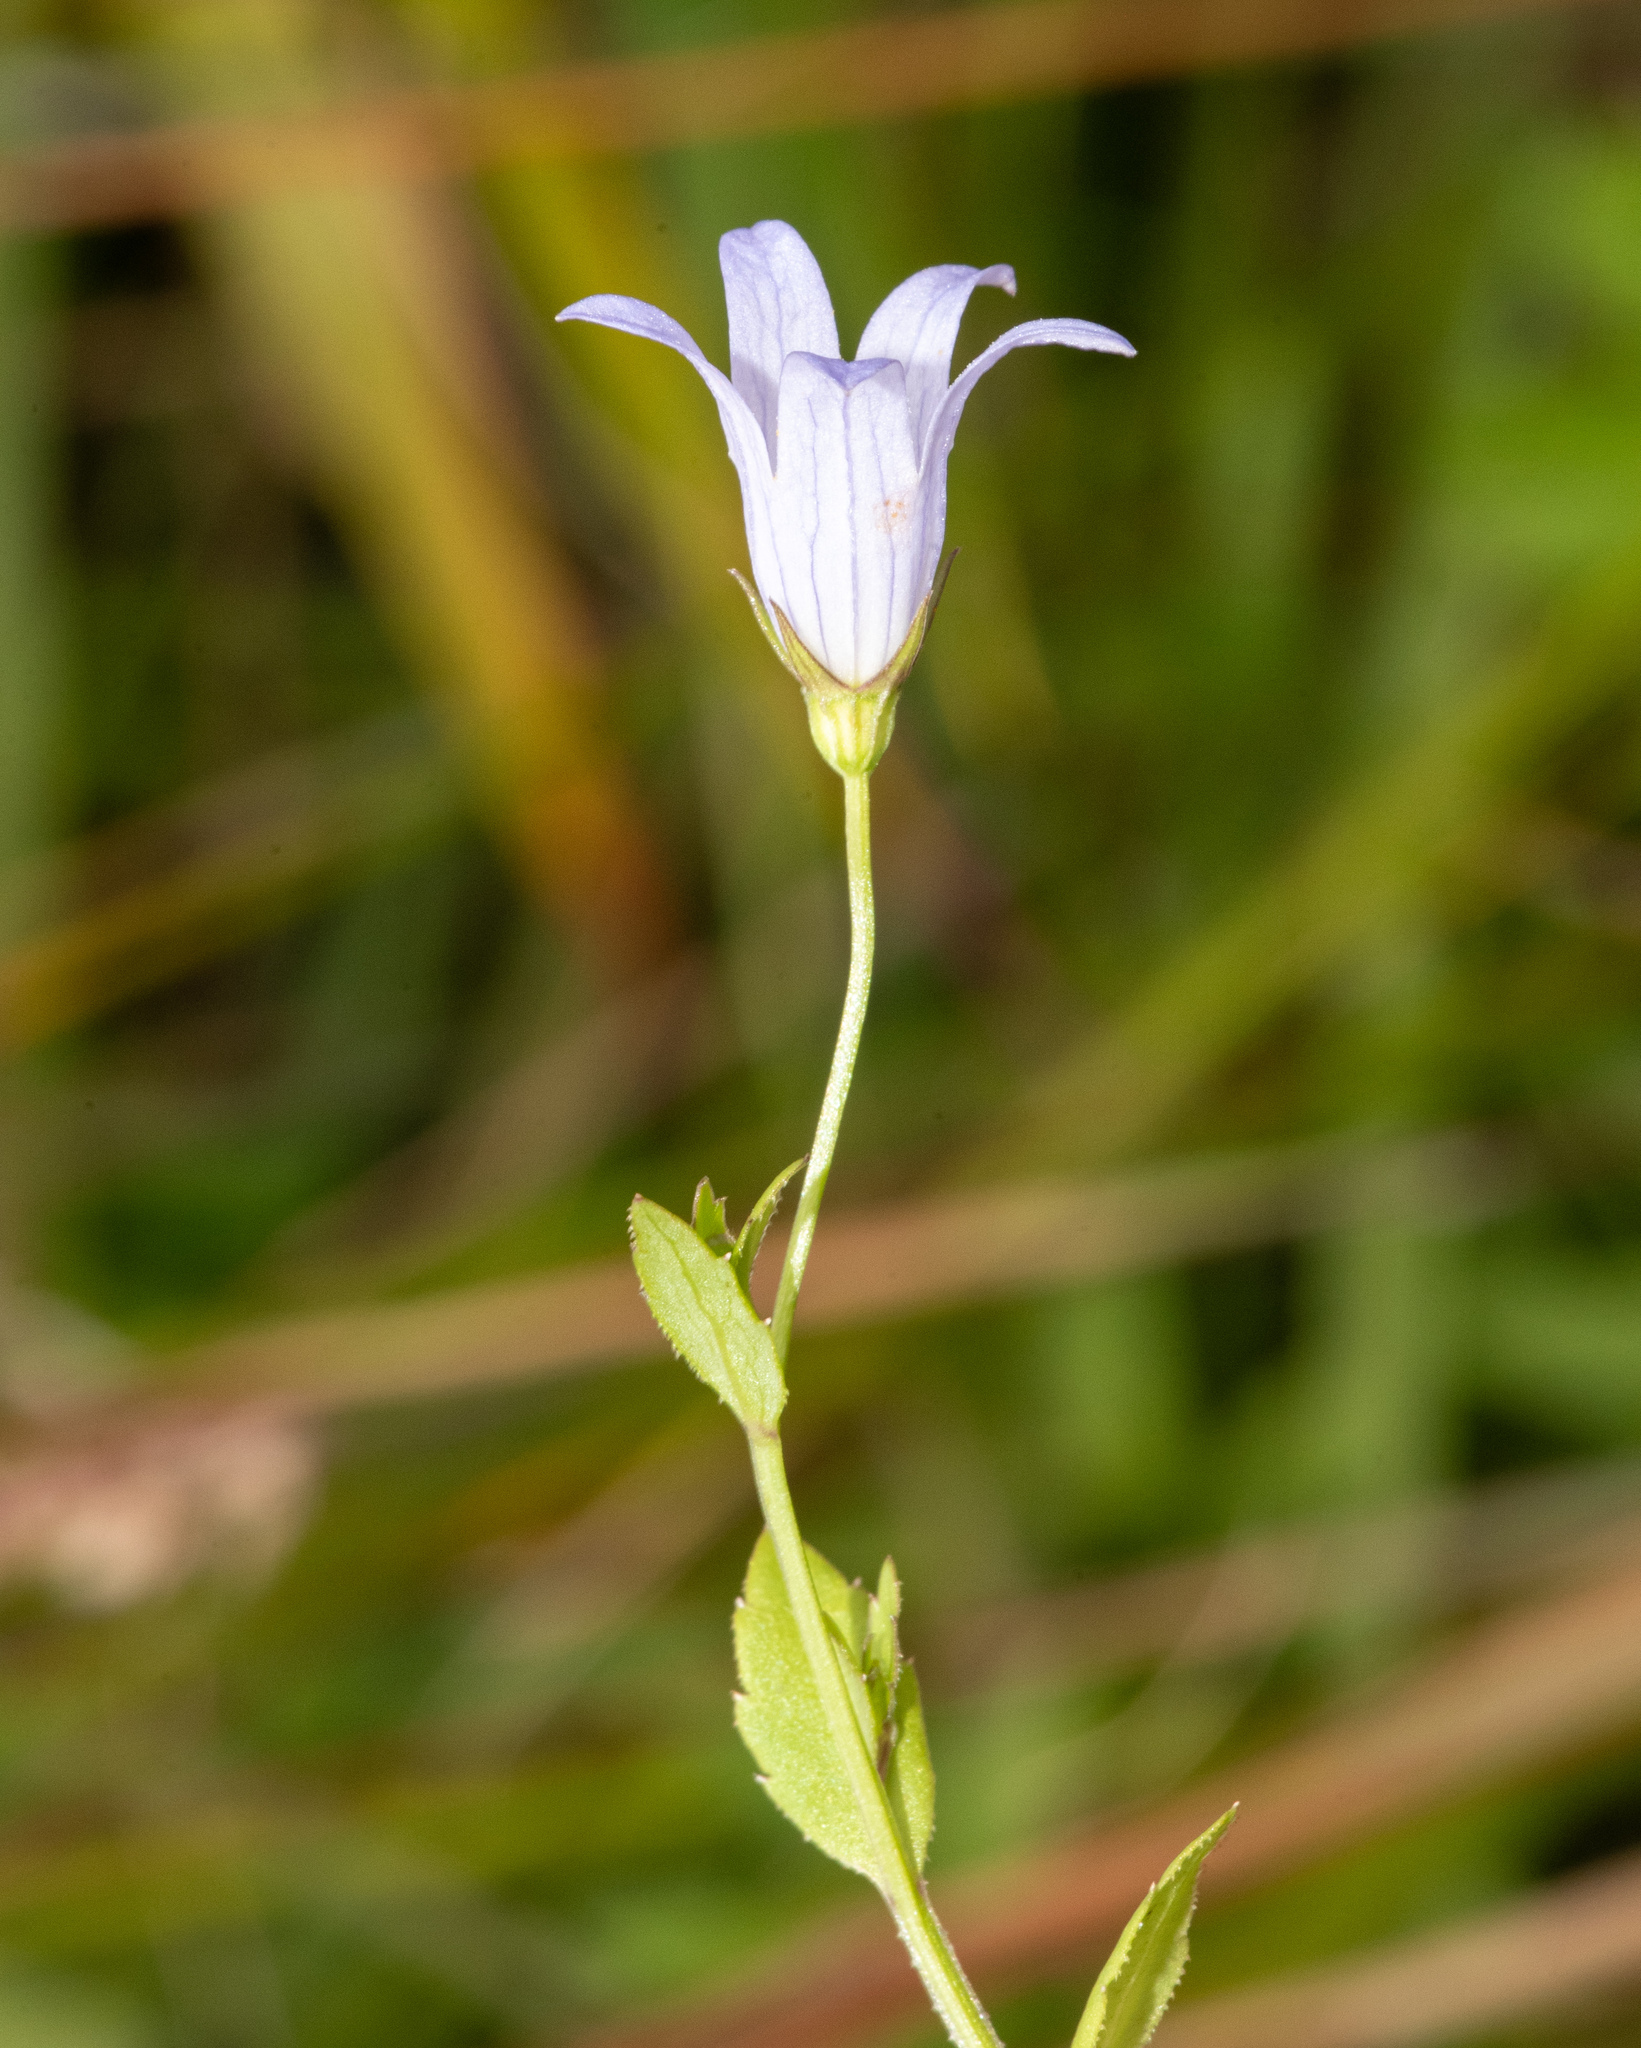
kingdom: Plantae
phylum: Tracheophyta
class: Magnoliopsida
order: Asterales
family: Campanulaceae
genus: Eastwoodiella
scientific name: Eastwoodiella californica
